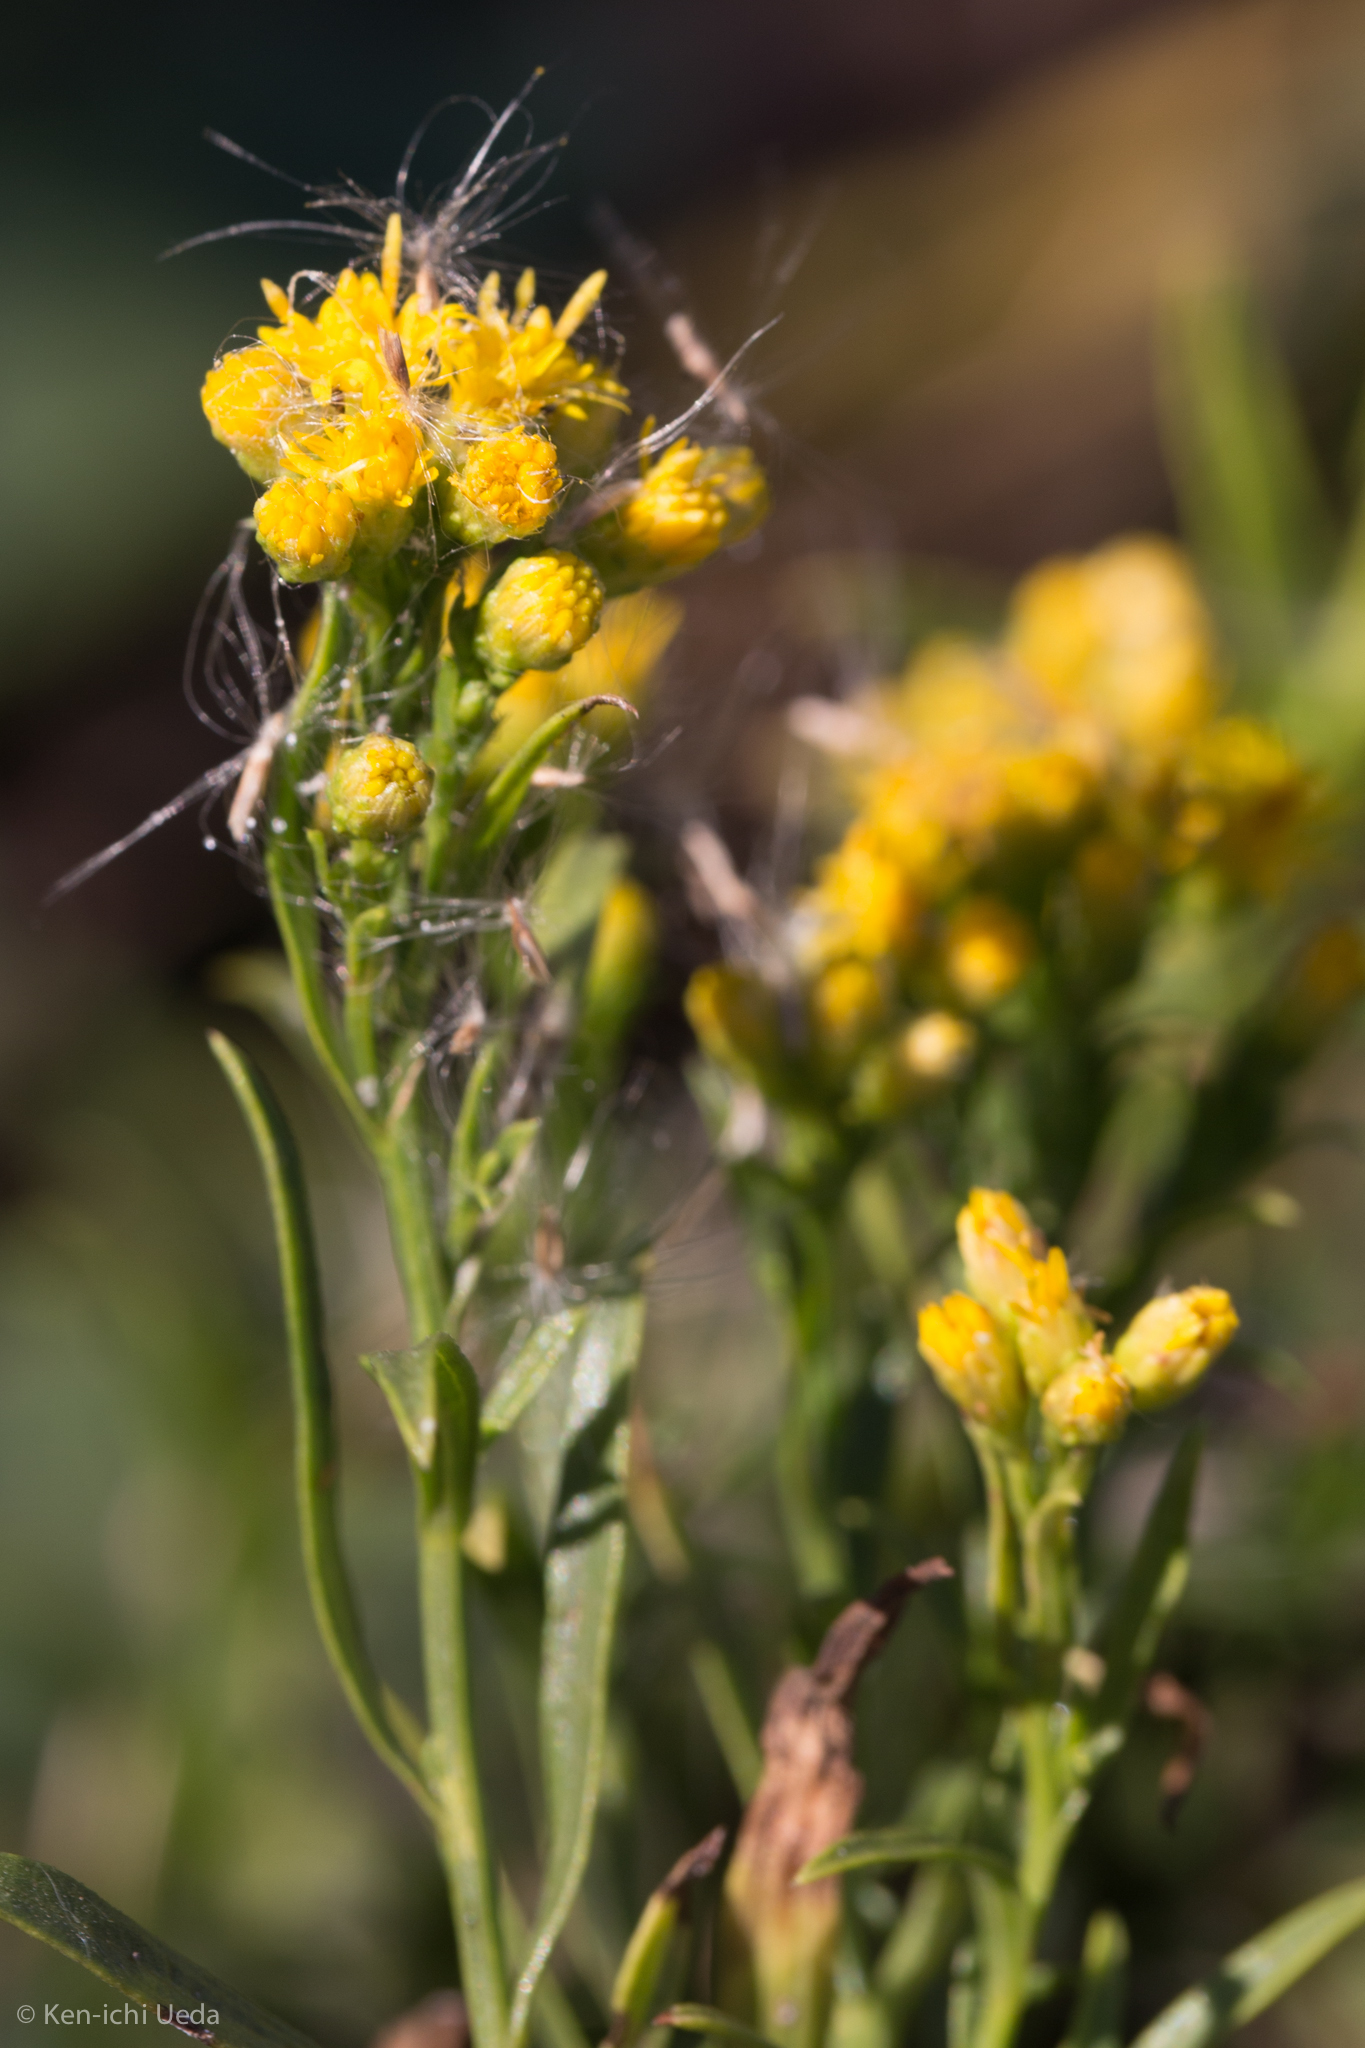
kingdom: Plantae
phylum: Tracheophyta
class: Magnoliopsida
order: Asterales
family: Asteraceae
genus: Euthamia
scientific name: Euthamia occidentalis
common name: Western goldentop
